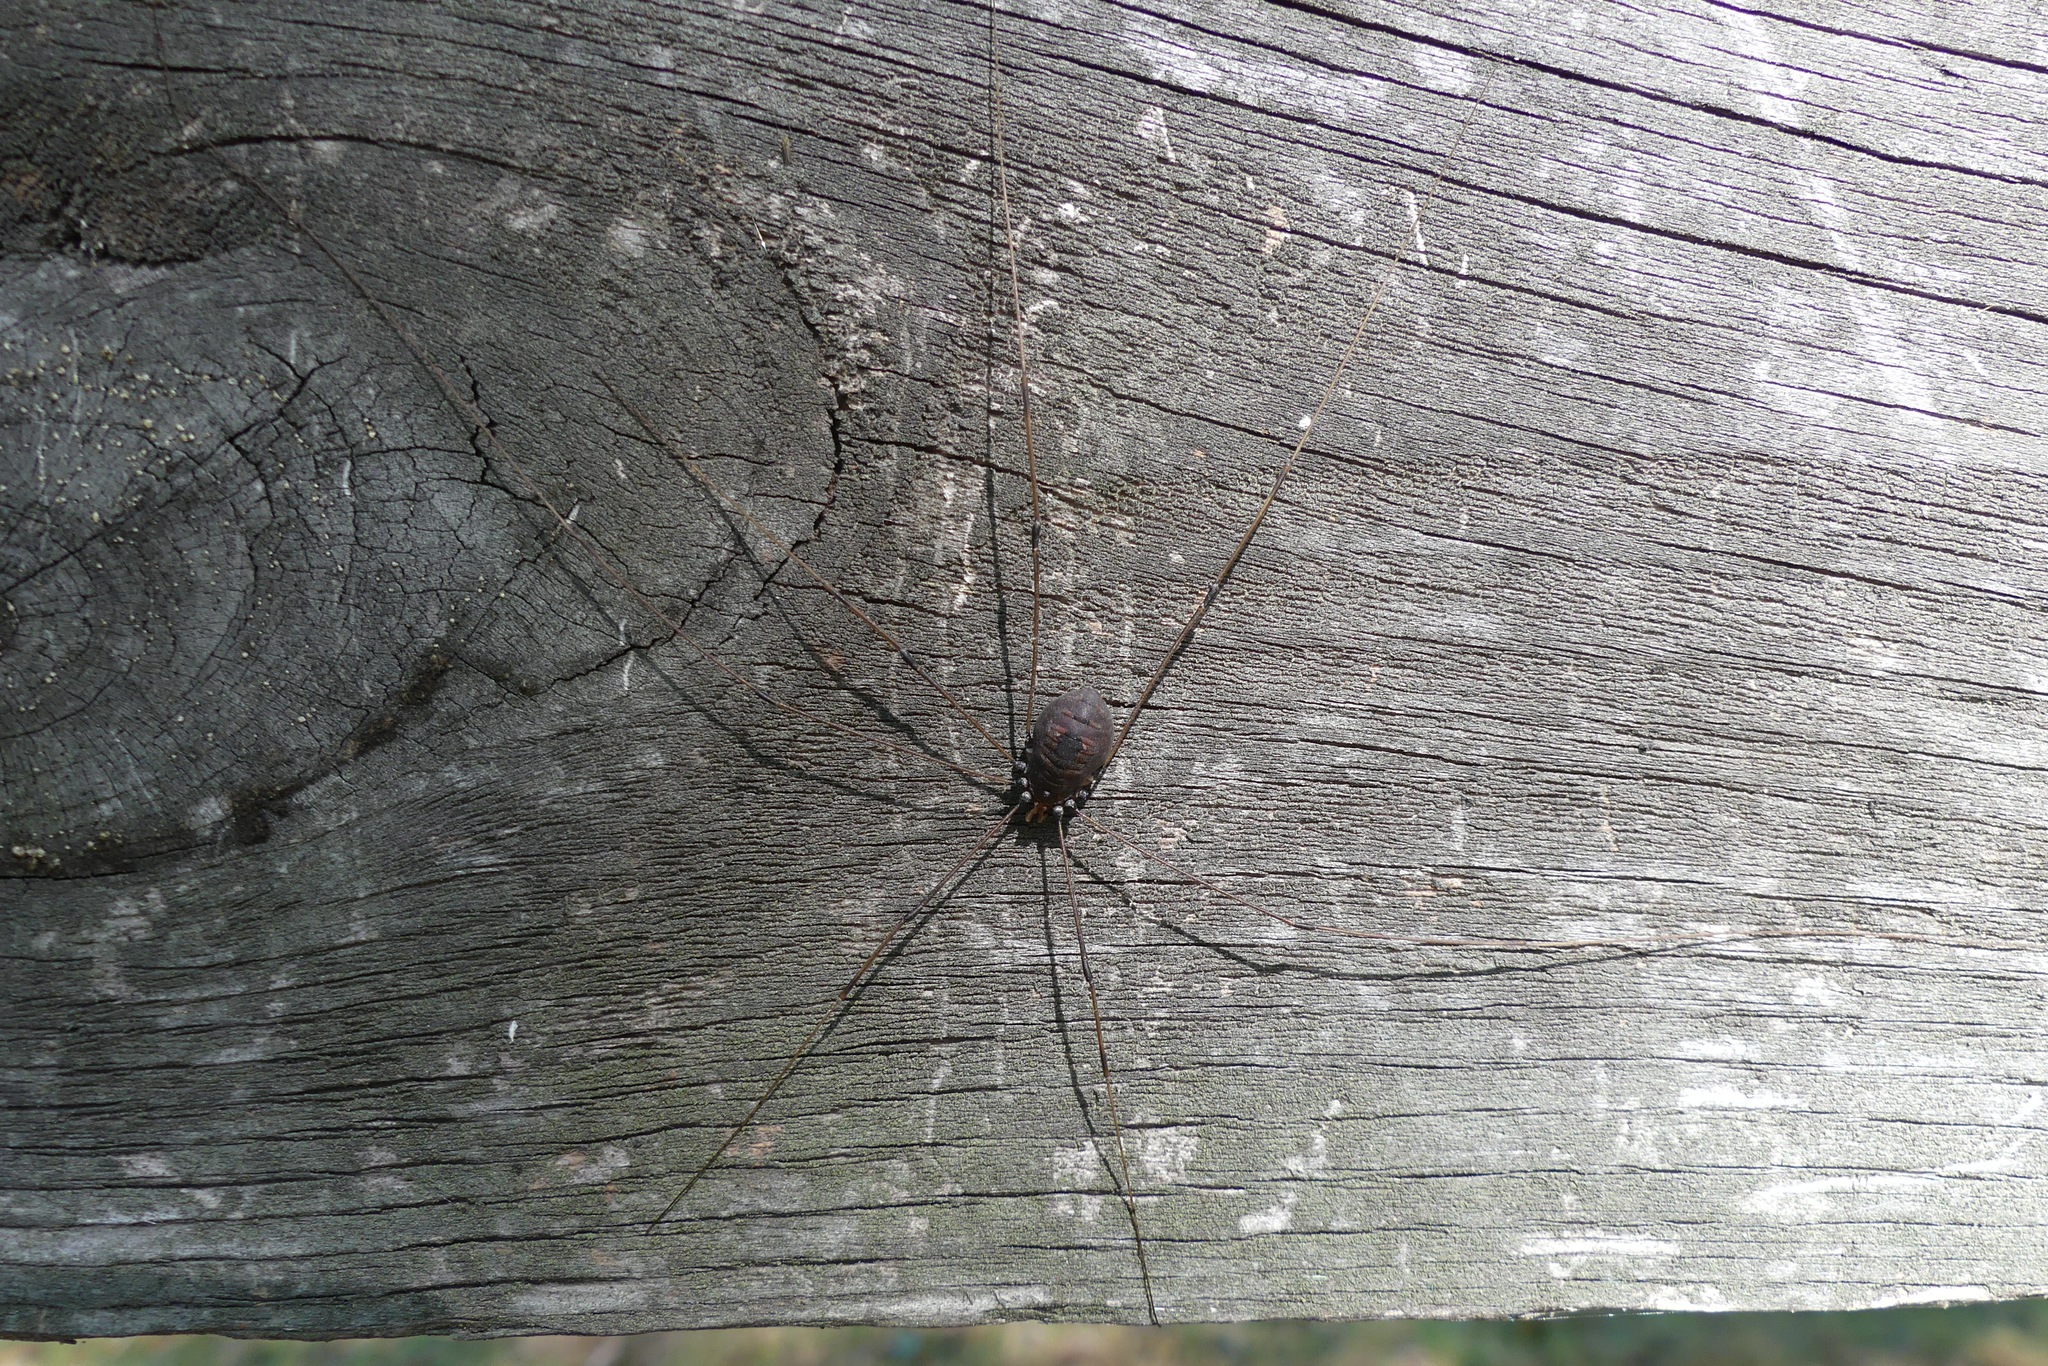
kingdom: Animalia
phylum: Arthropoda
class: Arachnida
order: Opiliones
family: Sclerosomatidae
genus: Leiobunum
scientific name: Leiobunum vittatum
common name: Eastern harvestman
